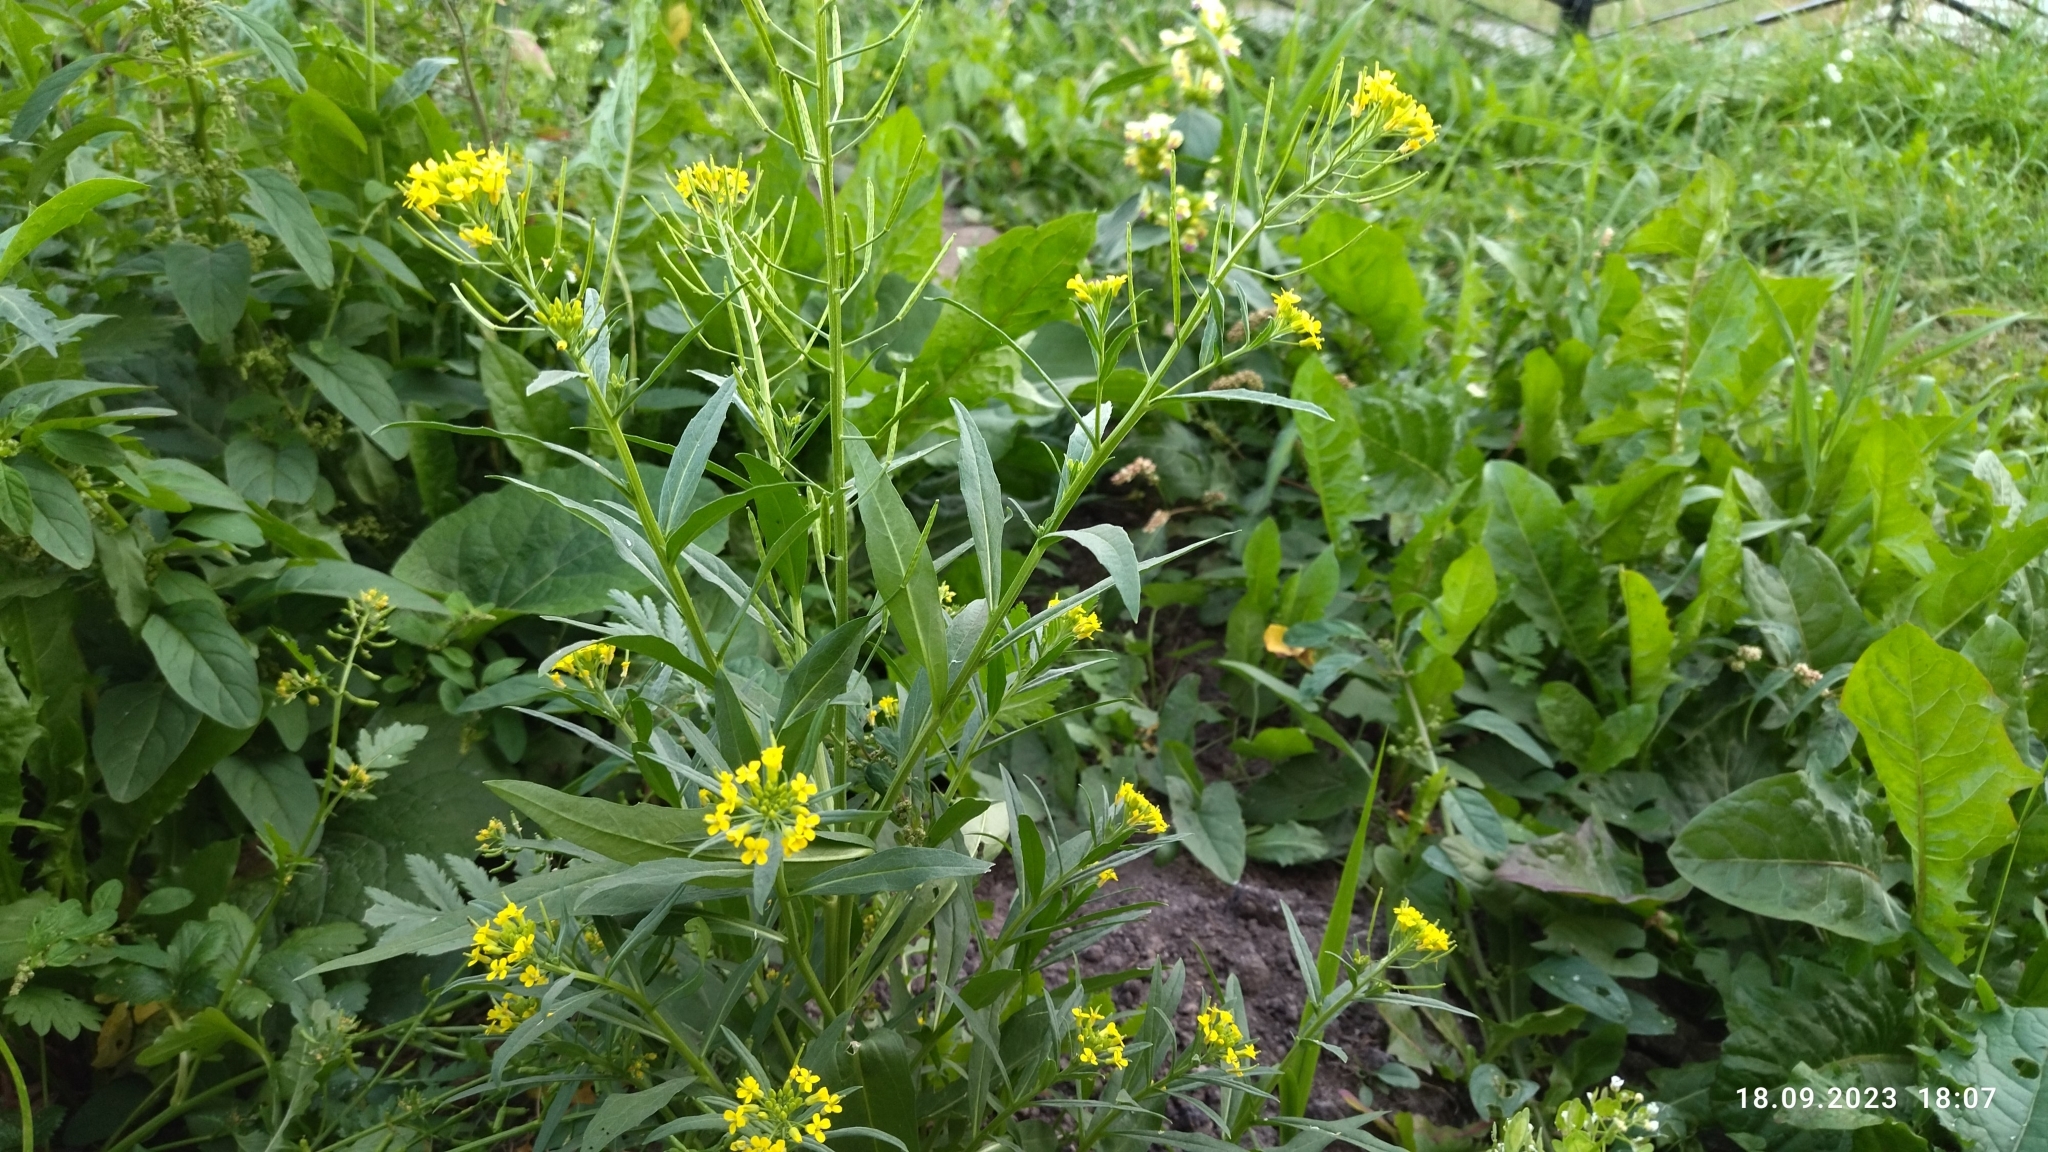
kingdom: Plantae
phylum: Tracheophyta
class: Magnoliopsida
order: Brassicales
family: Brassicaceae
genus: Erysimum
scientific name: Erysimum cheiranthoides
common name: Treacle mustard
